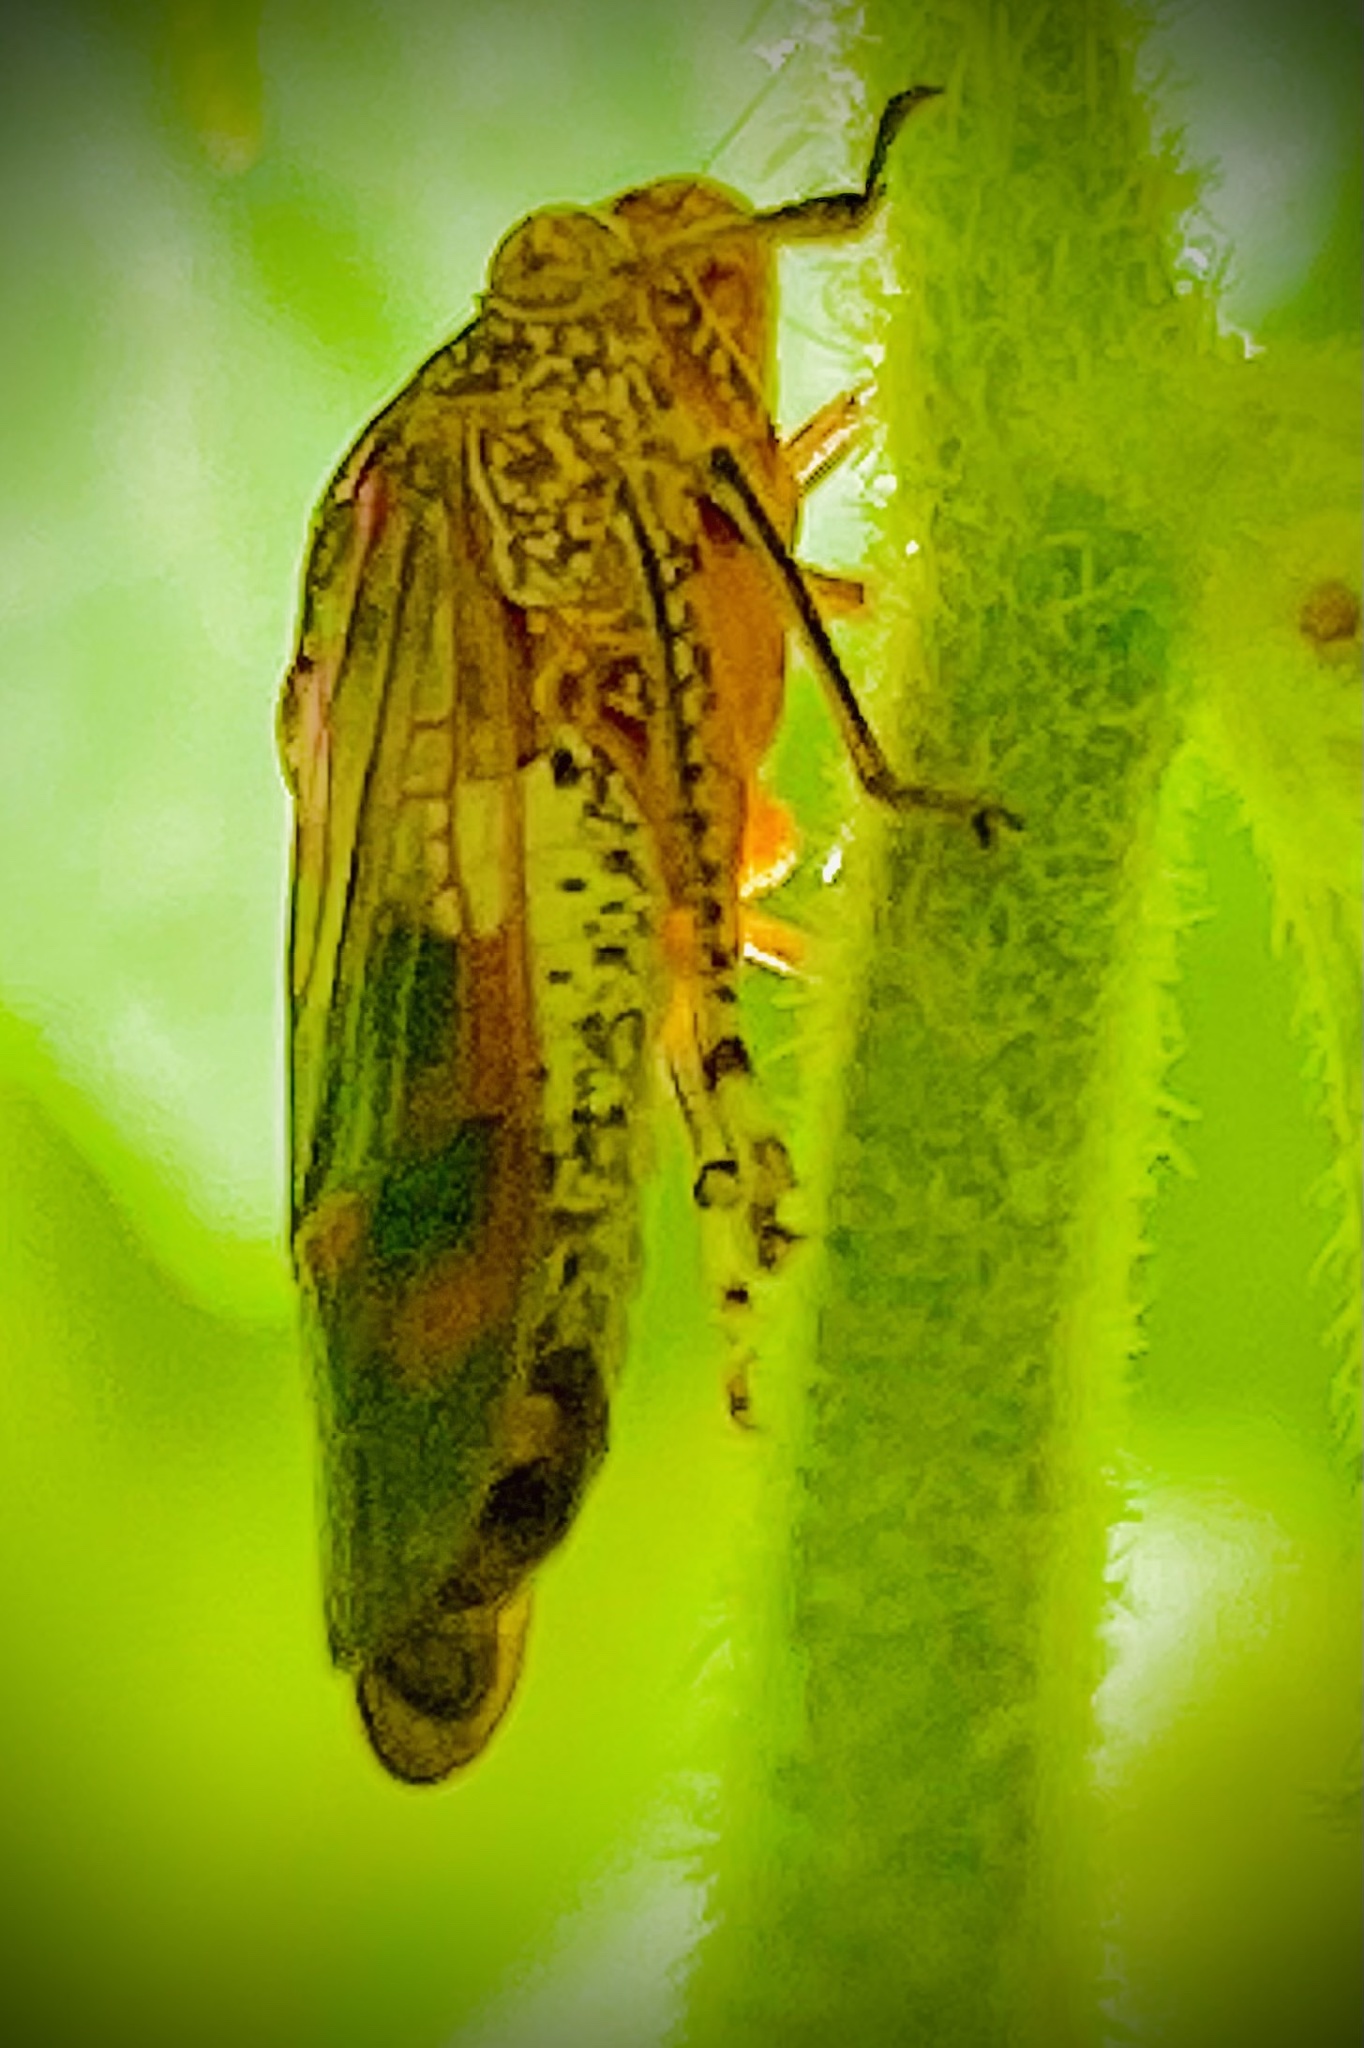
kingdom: Animalia
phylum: Arthropoda
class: Insecta
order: Hemiptera
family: Cicadellidae
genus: Homalodisca
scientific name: Homalodisca vitripennis
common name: Glassy-winged sharpshooter
